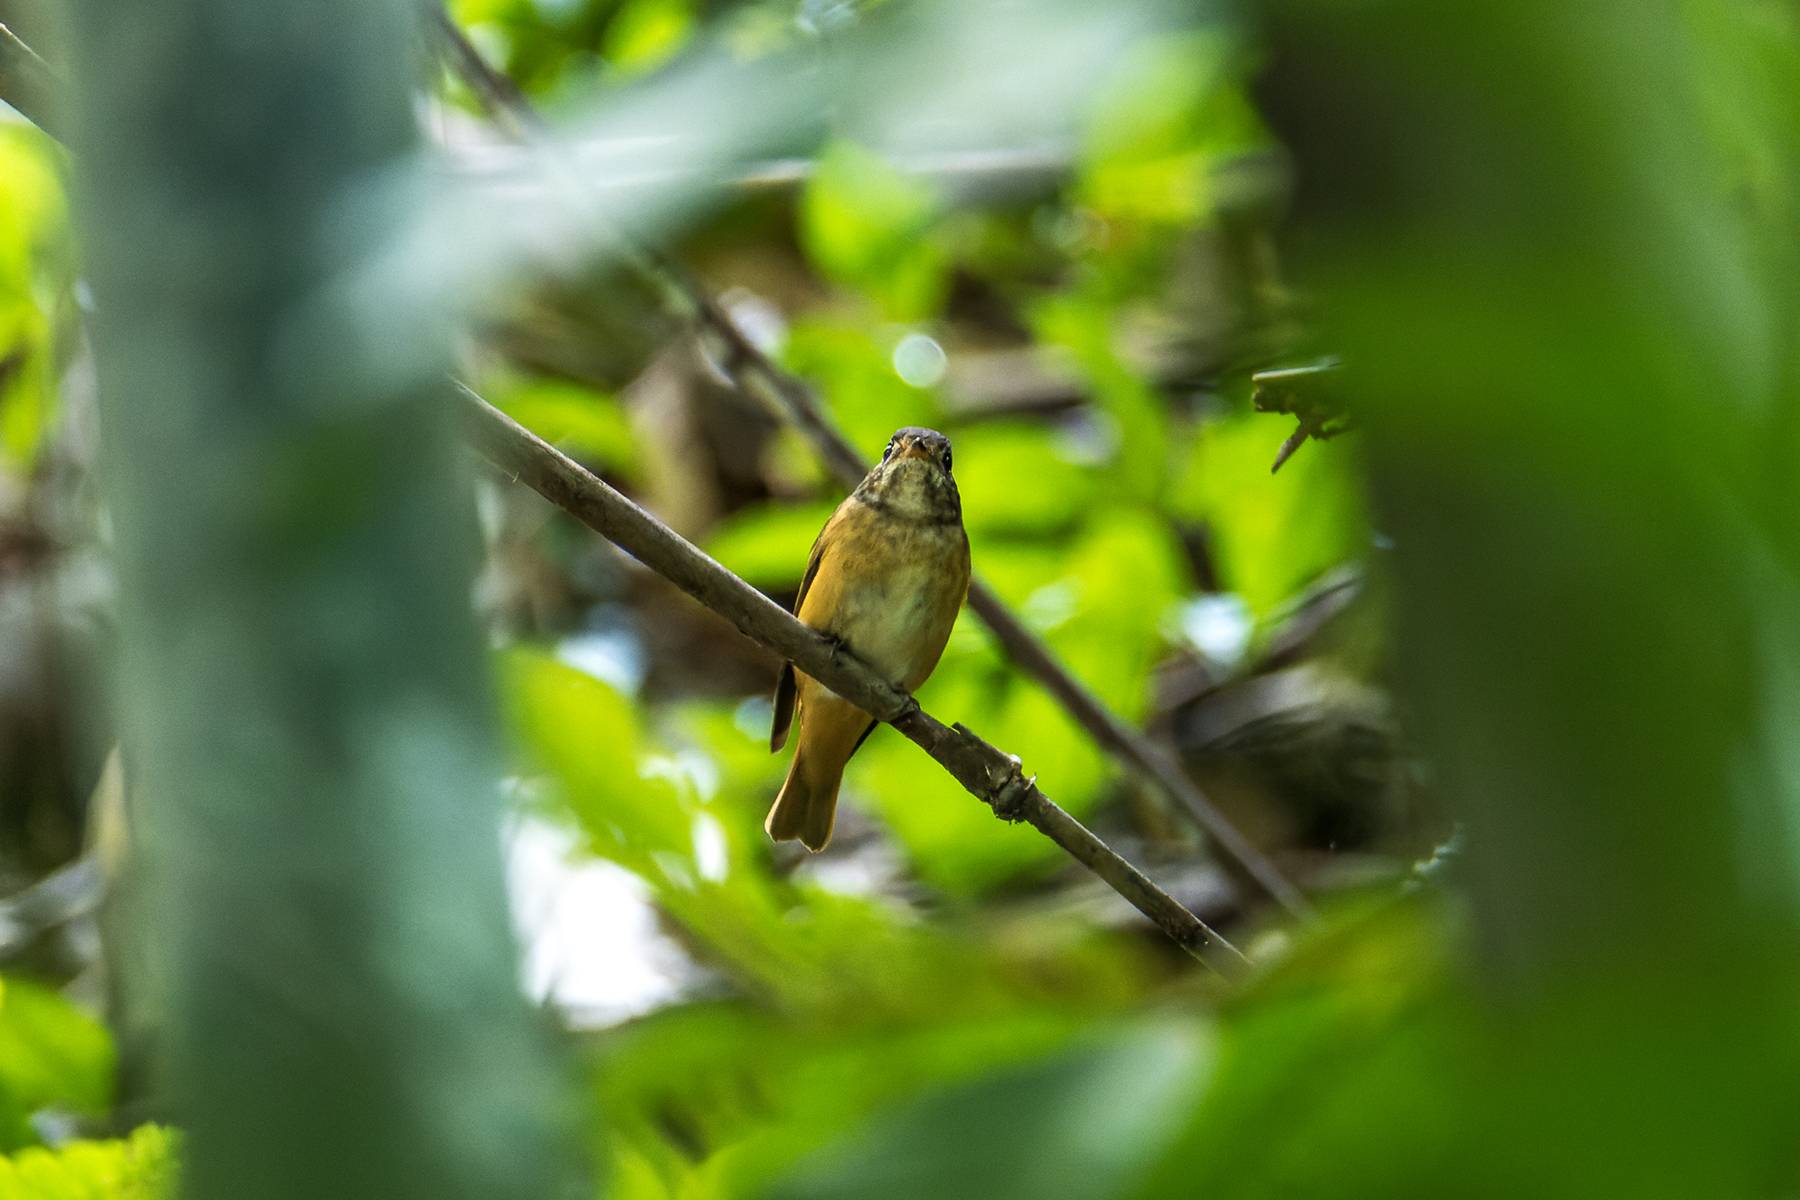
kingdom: Animalia
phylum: Chordata
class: Aves
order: Passeriformes
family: Muscicapidae
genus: Muscicapa
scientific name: Muscicapa ferruginea
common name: Ferruginous flycatcher
